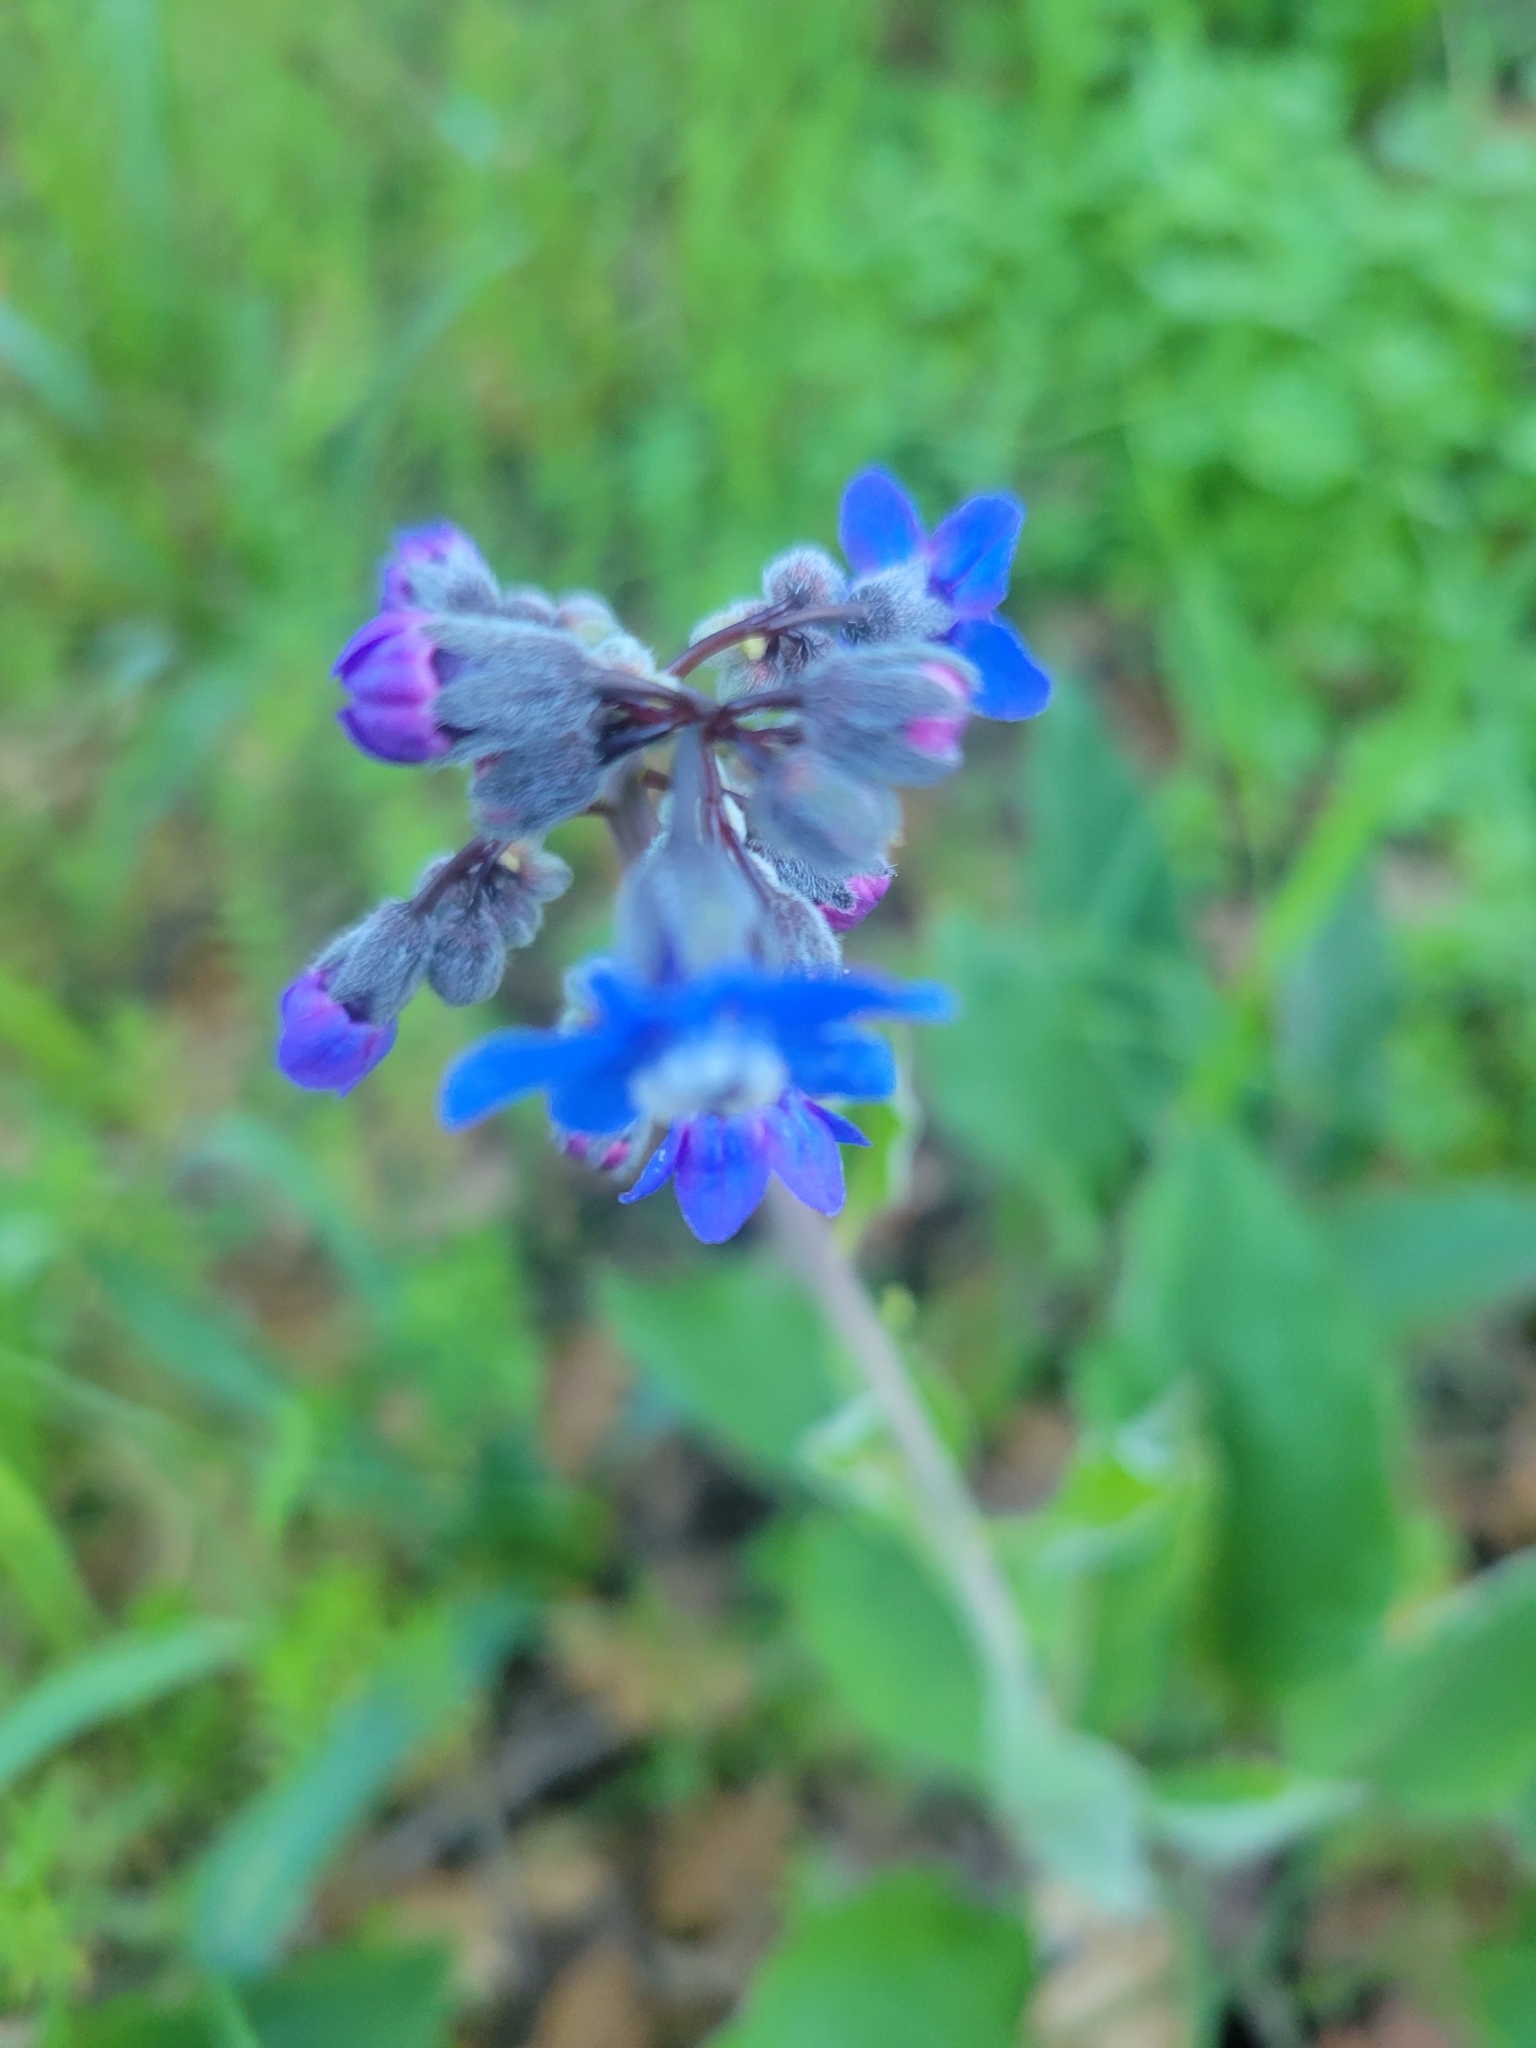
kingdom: Plantae
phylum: Tracheophyta
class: Magnoliopsida
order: Boraginales
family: Boraginaceae
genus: Adelinia
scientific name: Adelinia grande
